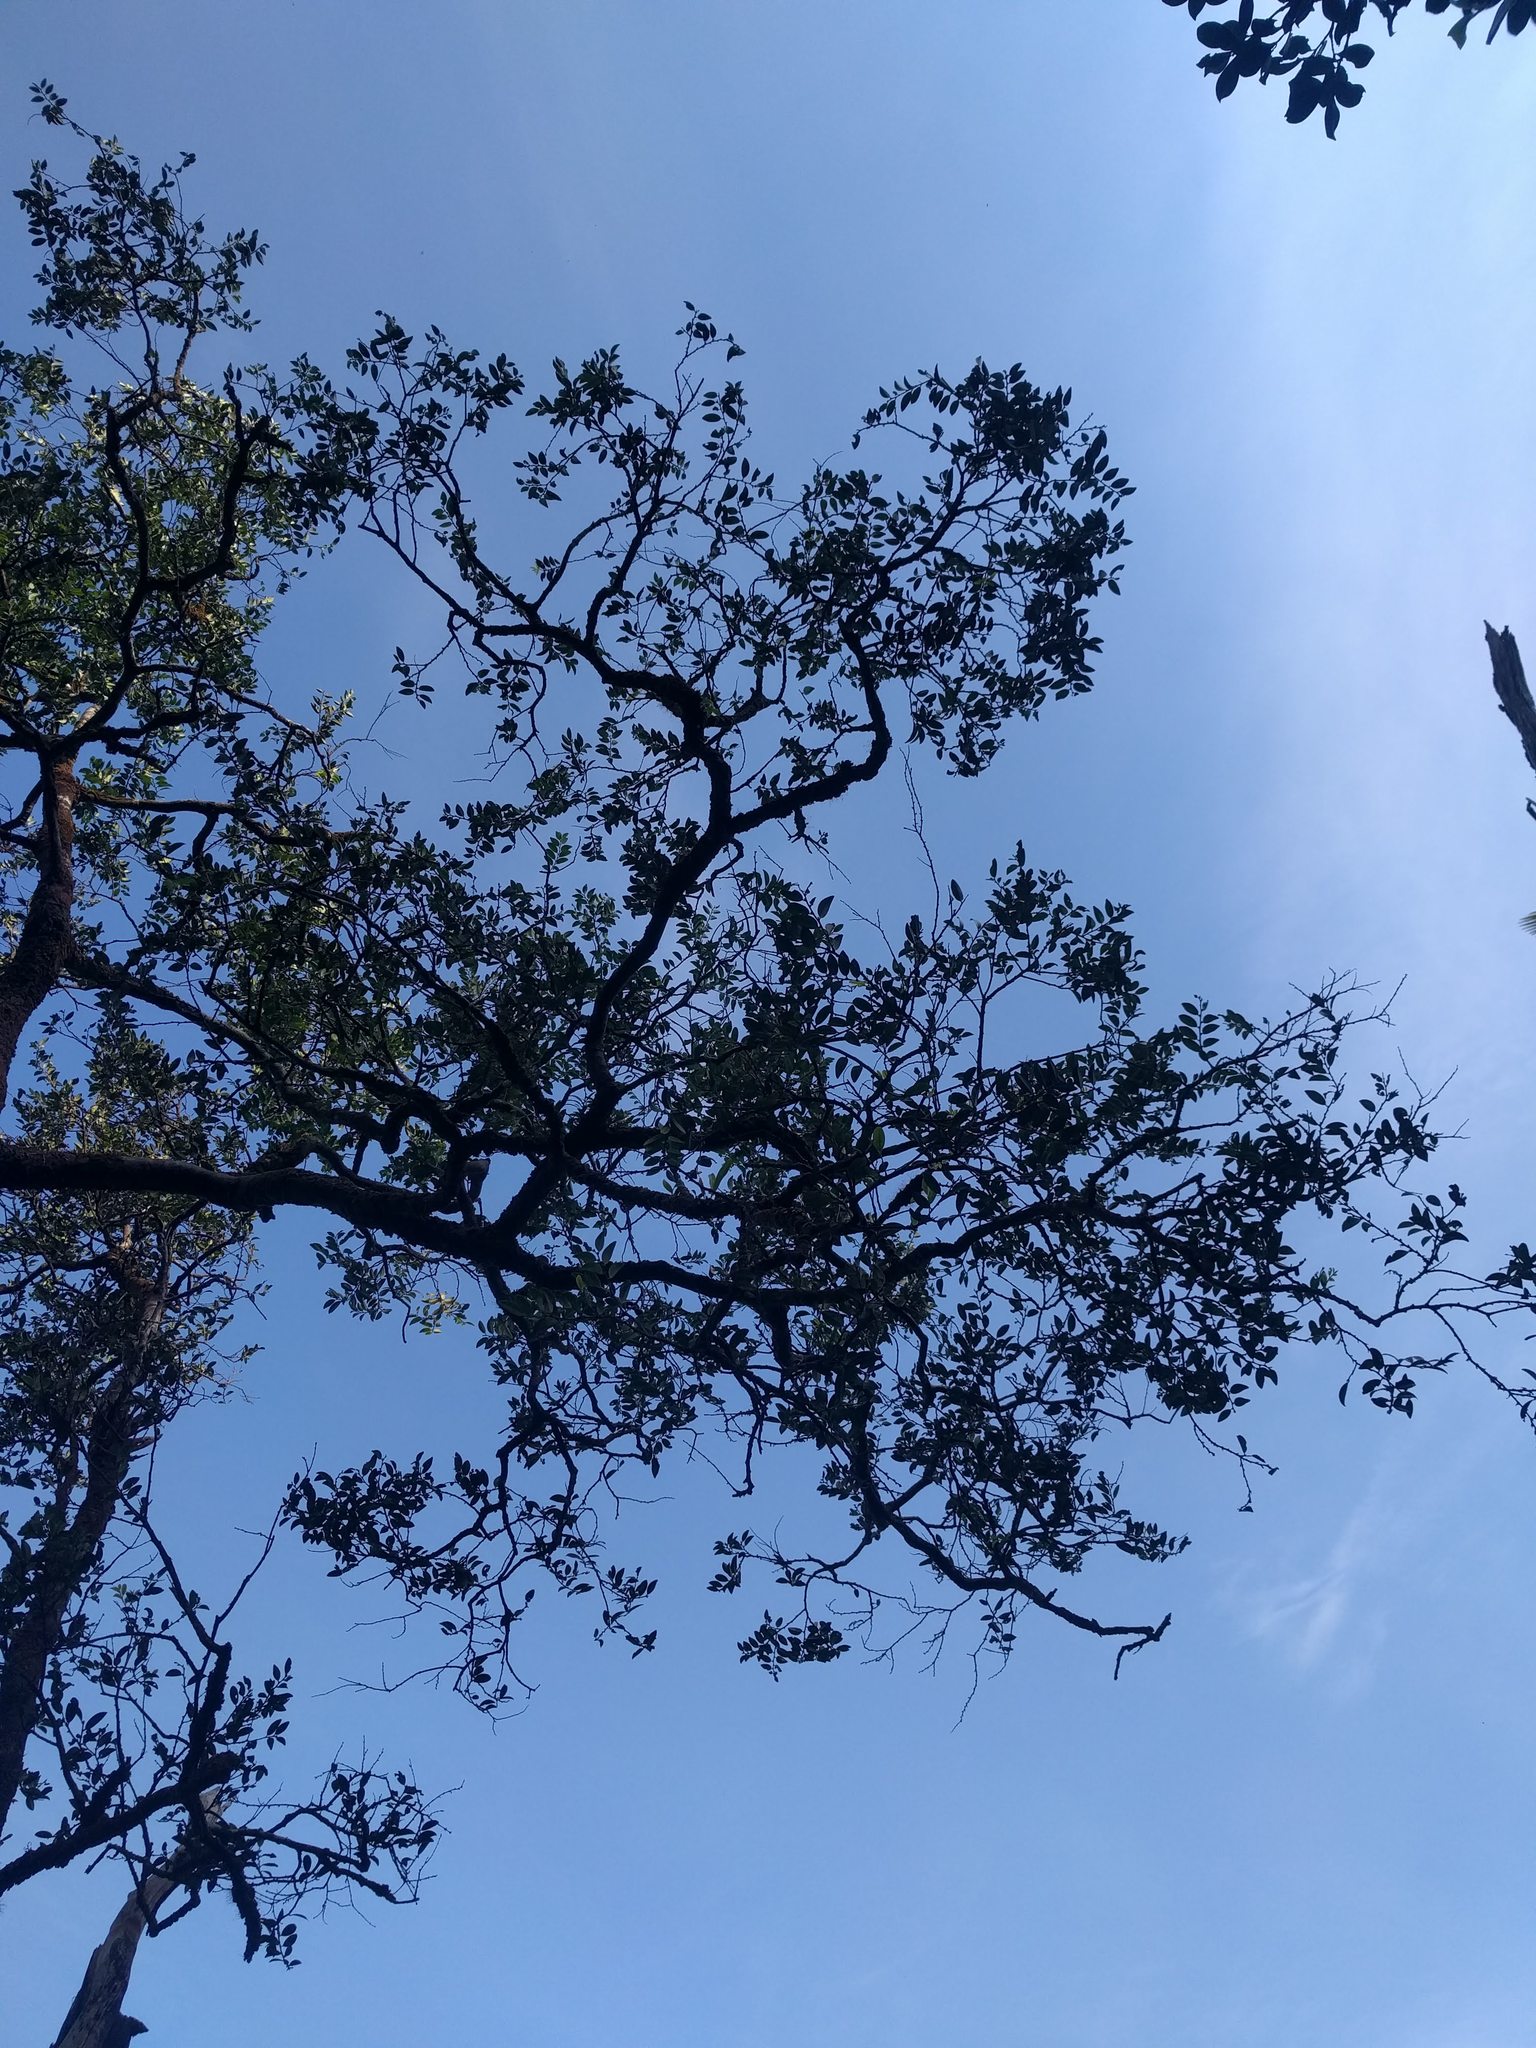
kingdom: Plantae
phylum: Tracheophyta
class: Magnoliopsida
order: Ericales
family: Ebenaceae
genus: Diospyros
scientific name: Diospyros sandwicensis
